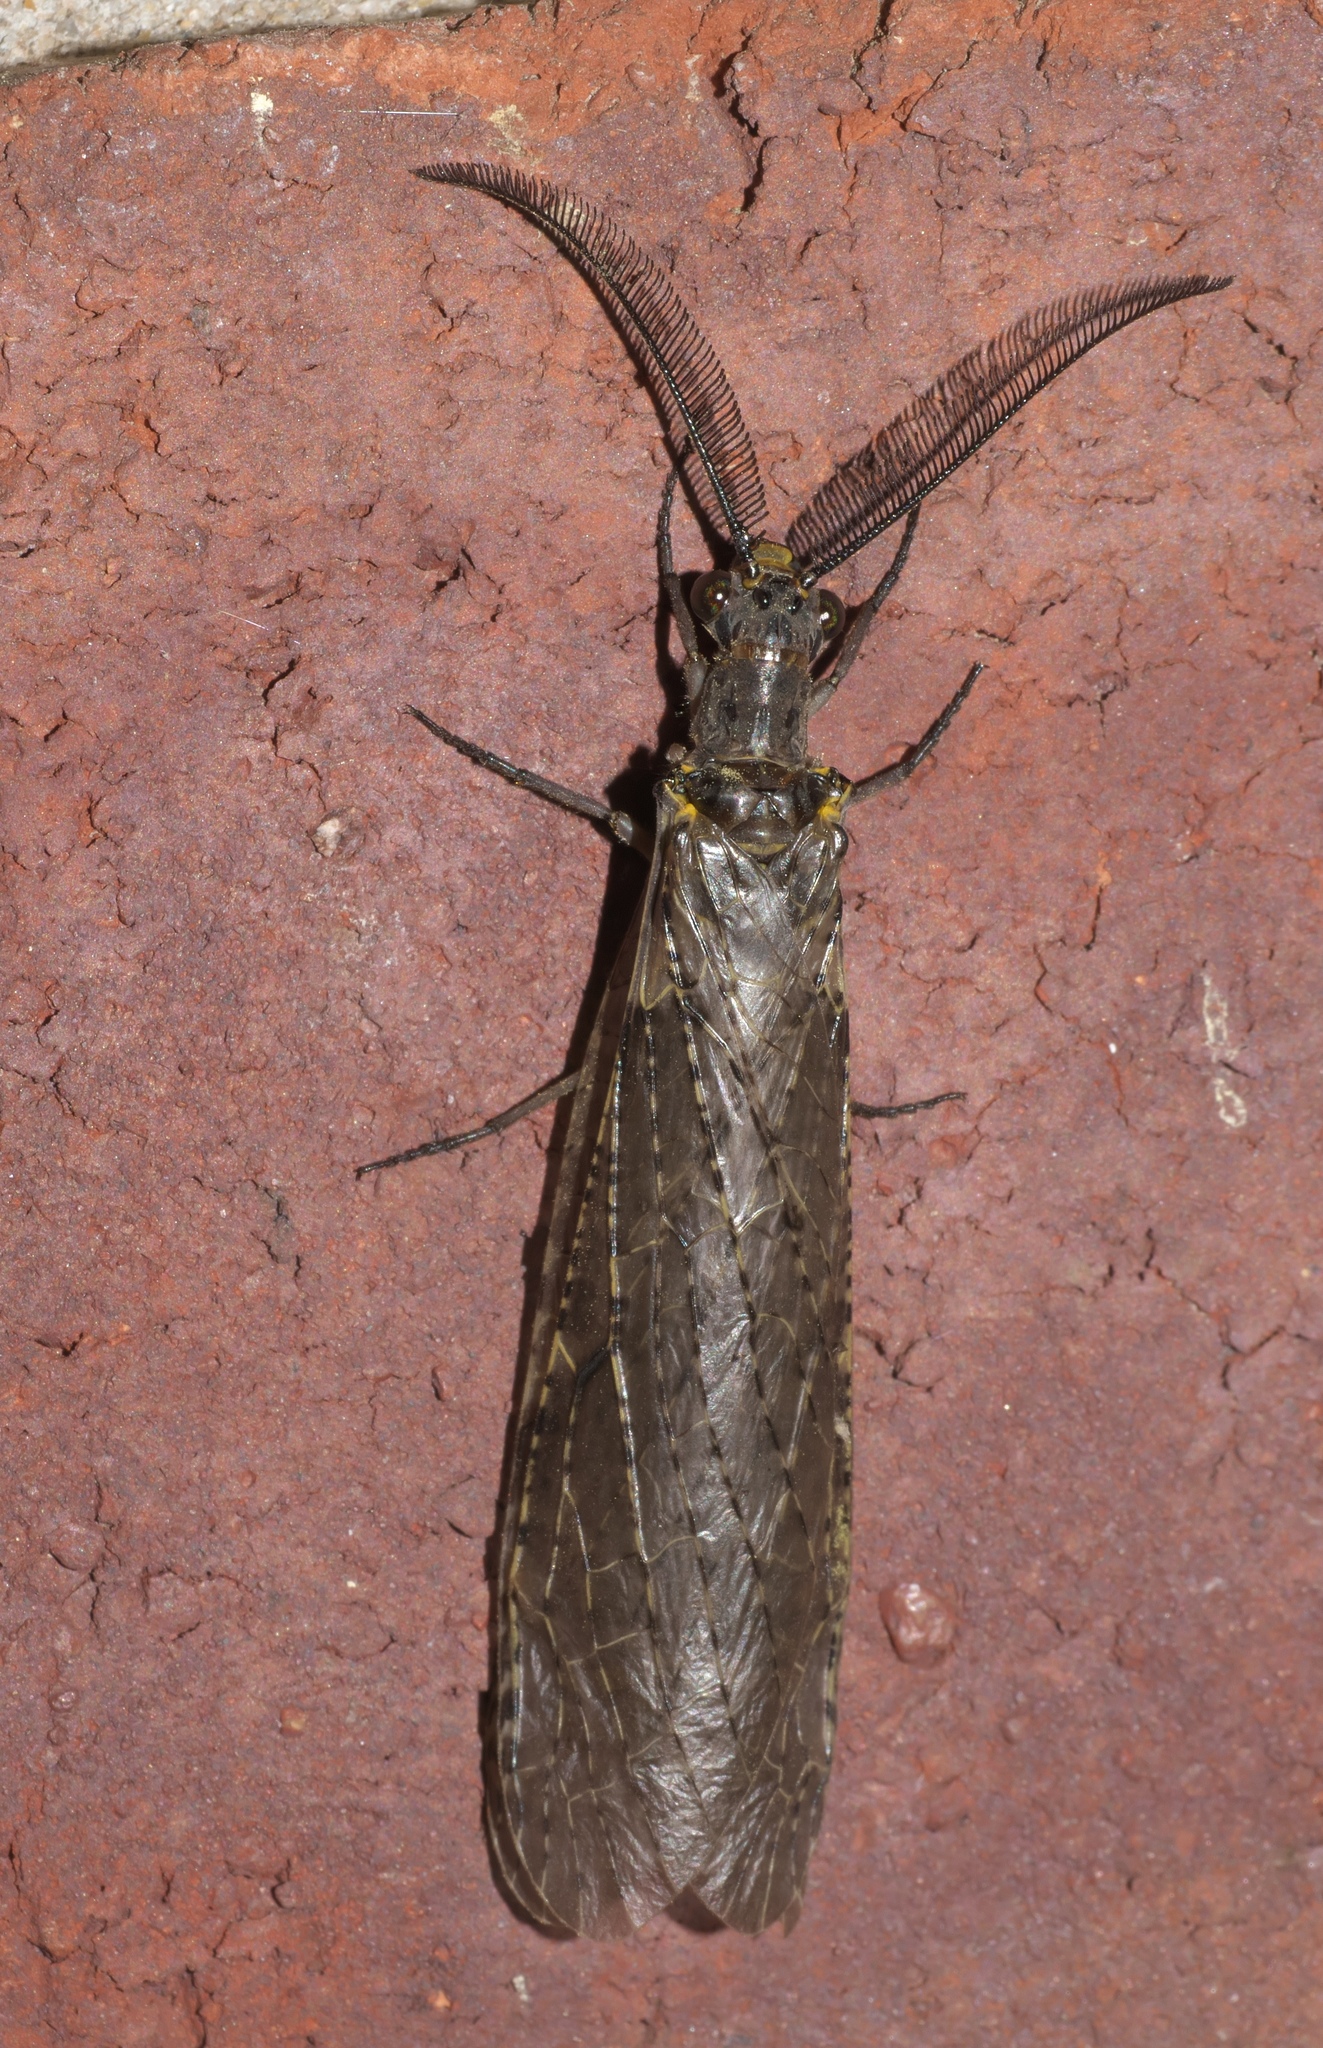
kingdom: Animalia
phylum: Arthropoda
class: Insecta
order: Megaloptera
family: Corydalidae
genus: Chauliodes
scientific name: Chauliodes rastricornis
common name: Spring fishfly
